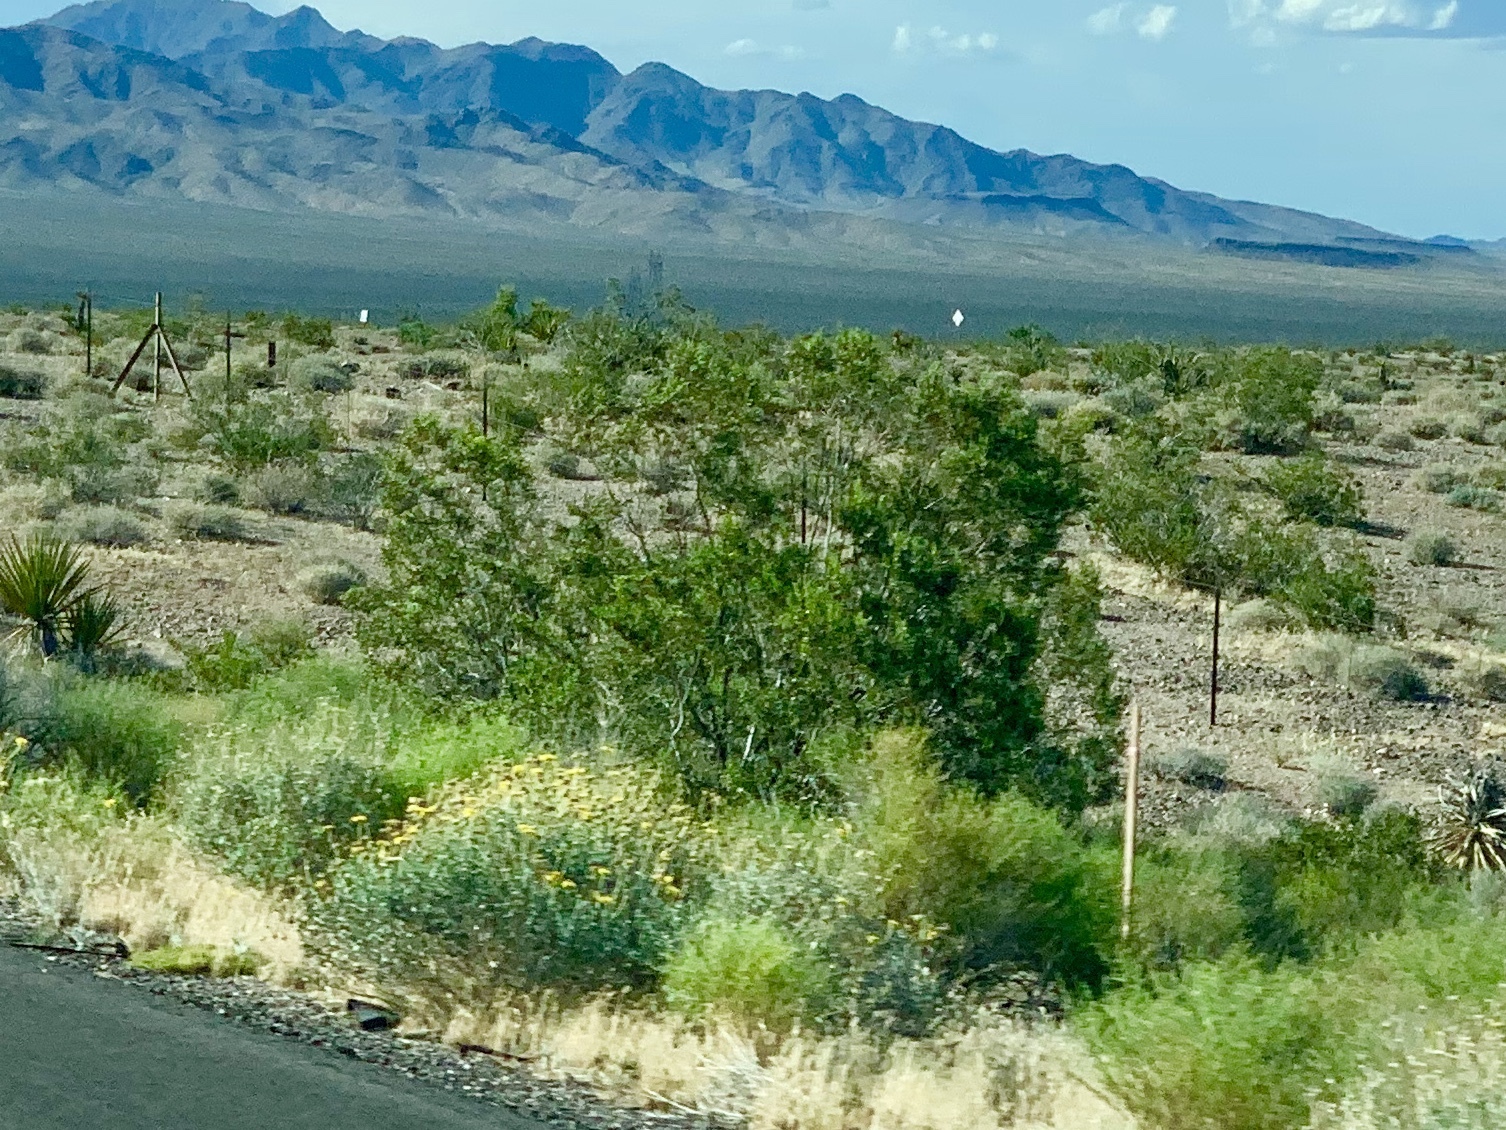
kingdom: Plantae
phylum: Tracheophyta
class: Magnoliopsida
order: Zygophyllales
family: Zygophyllaceae
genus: Larrea
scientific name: Larrea tridentata
